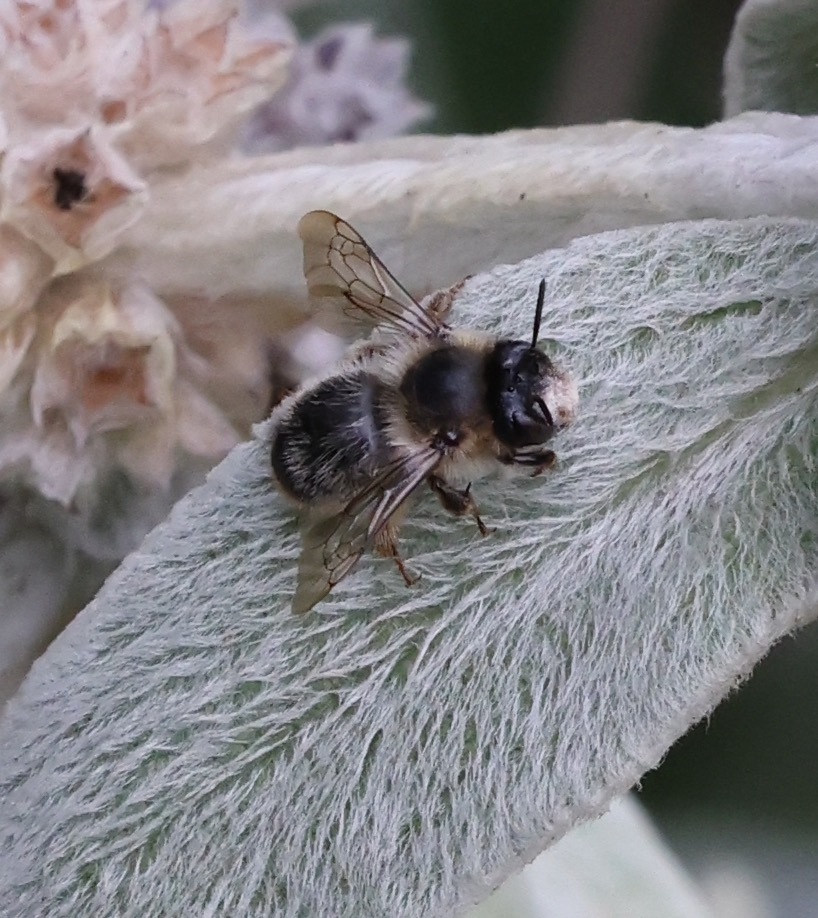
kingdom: Animalia
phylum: Arthropoda
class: Insecta
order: Hymenoptera
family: Apidae
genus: Anthophora
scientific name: Anthophora furcata
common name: Fork-tailed flower bee
